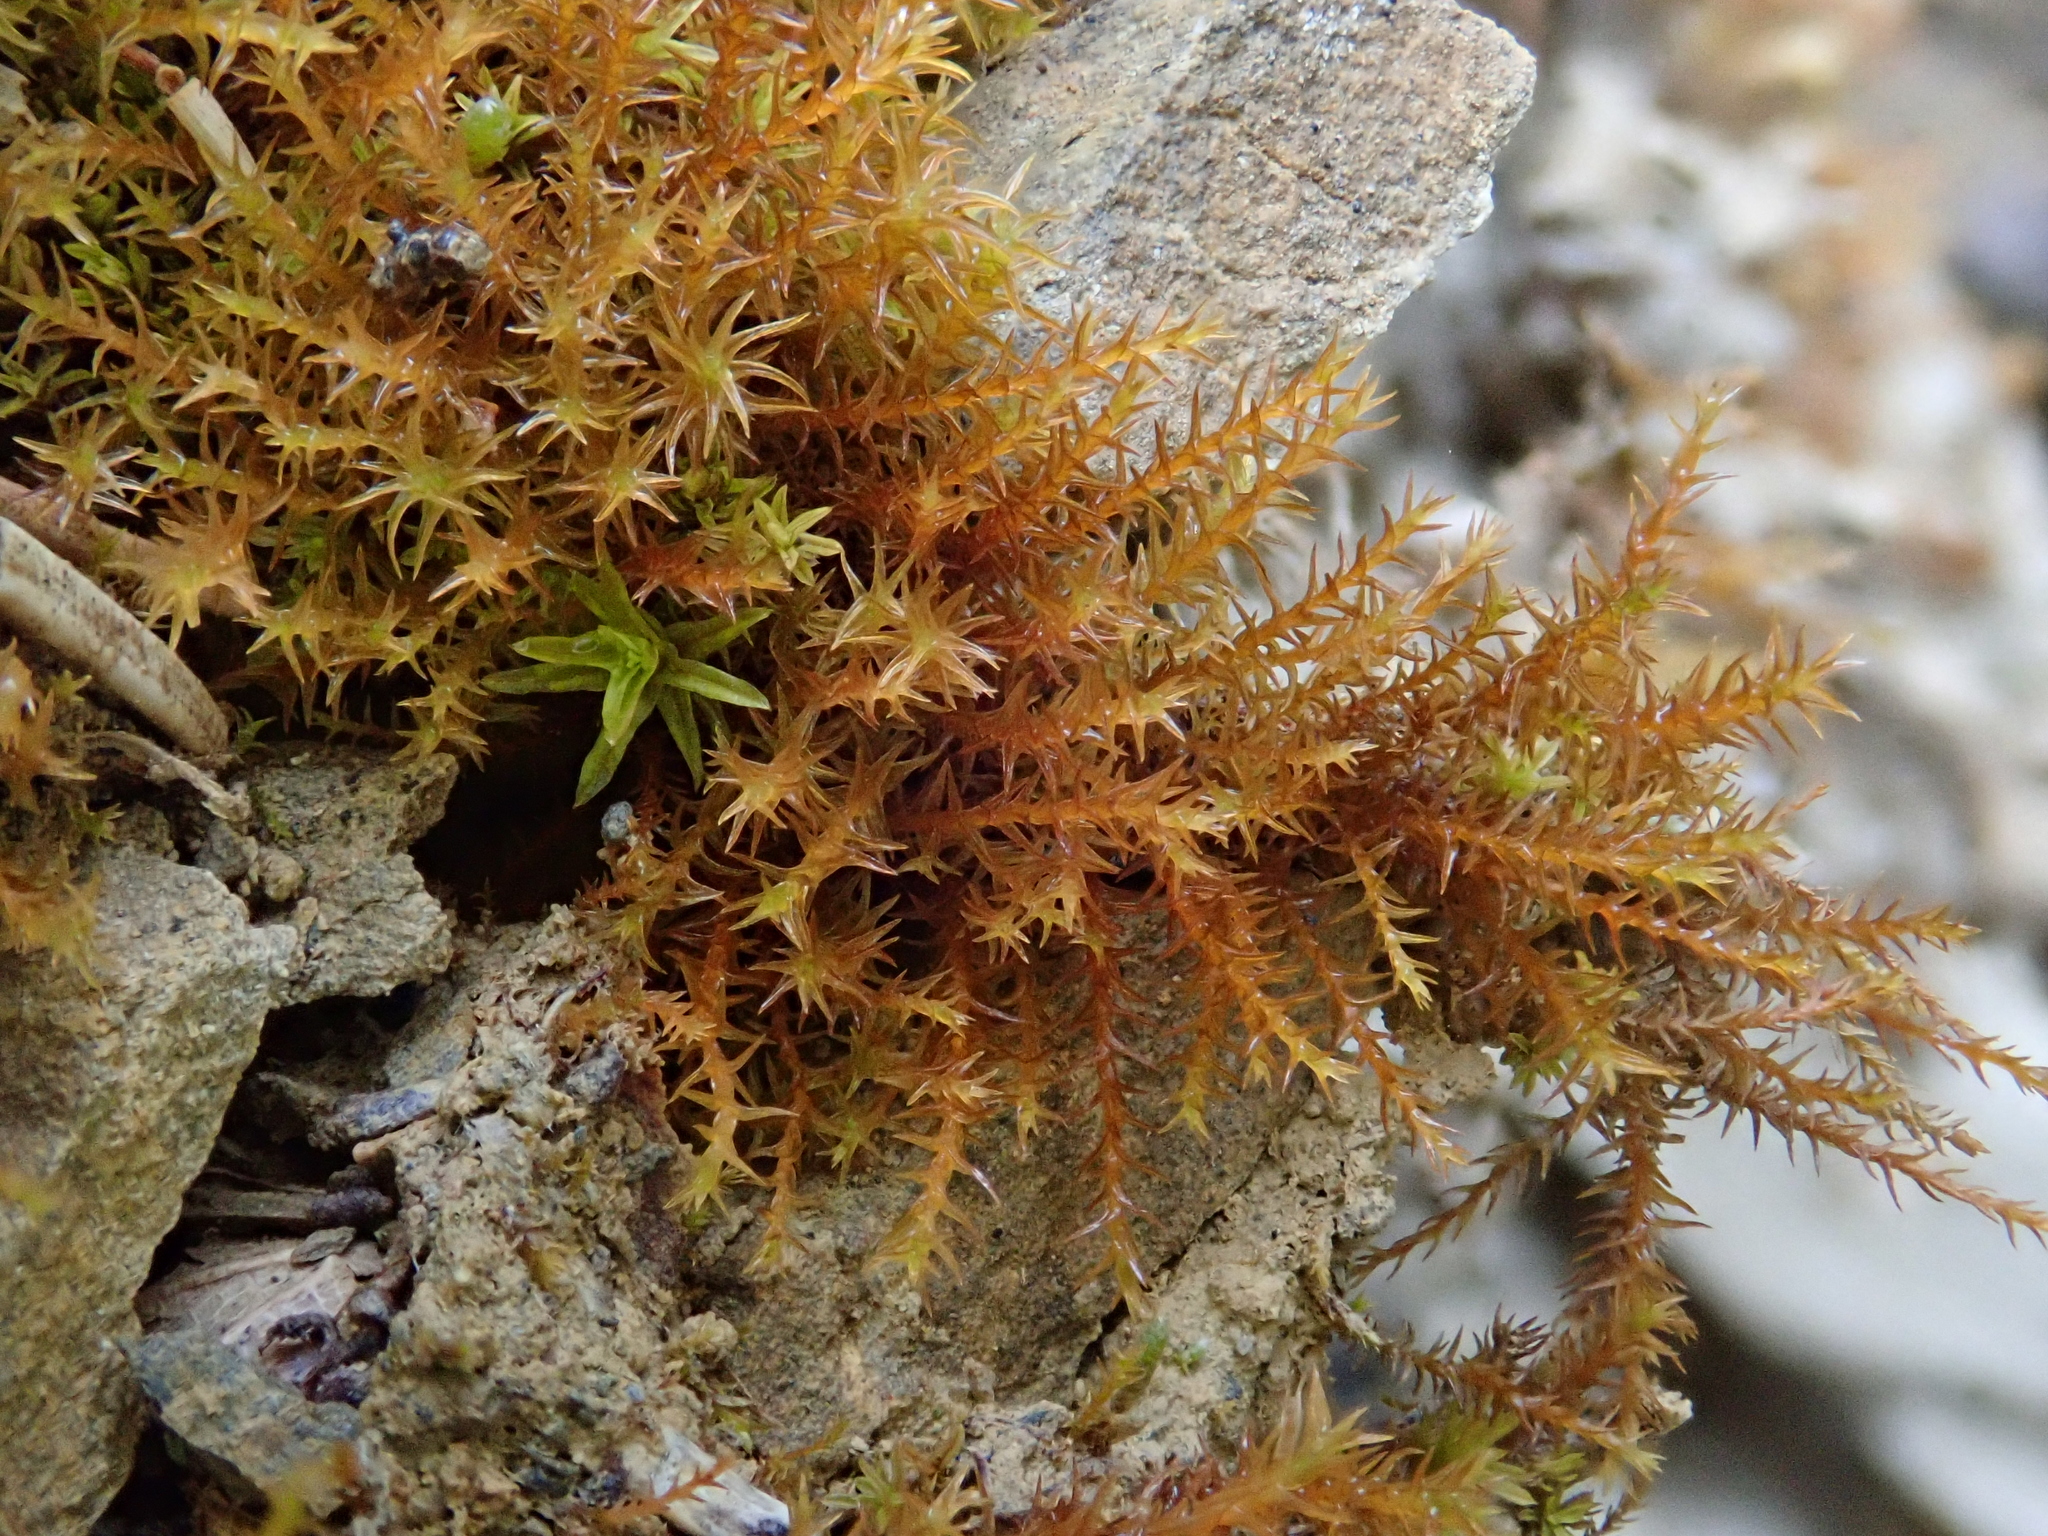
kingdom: Plantae
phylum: Bryophyta
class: Bryopsida
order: Pottiales
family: Pottiaceae
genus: Geheebia
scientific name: Geheebia fallax
